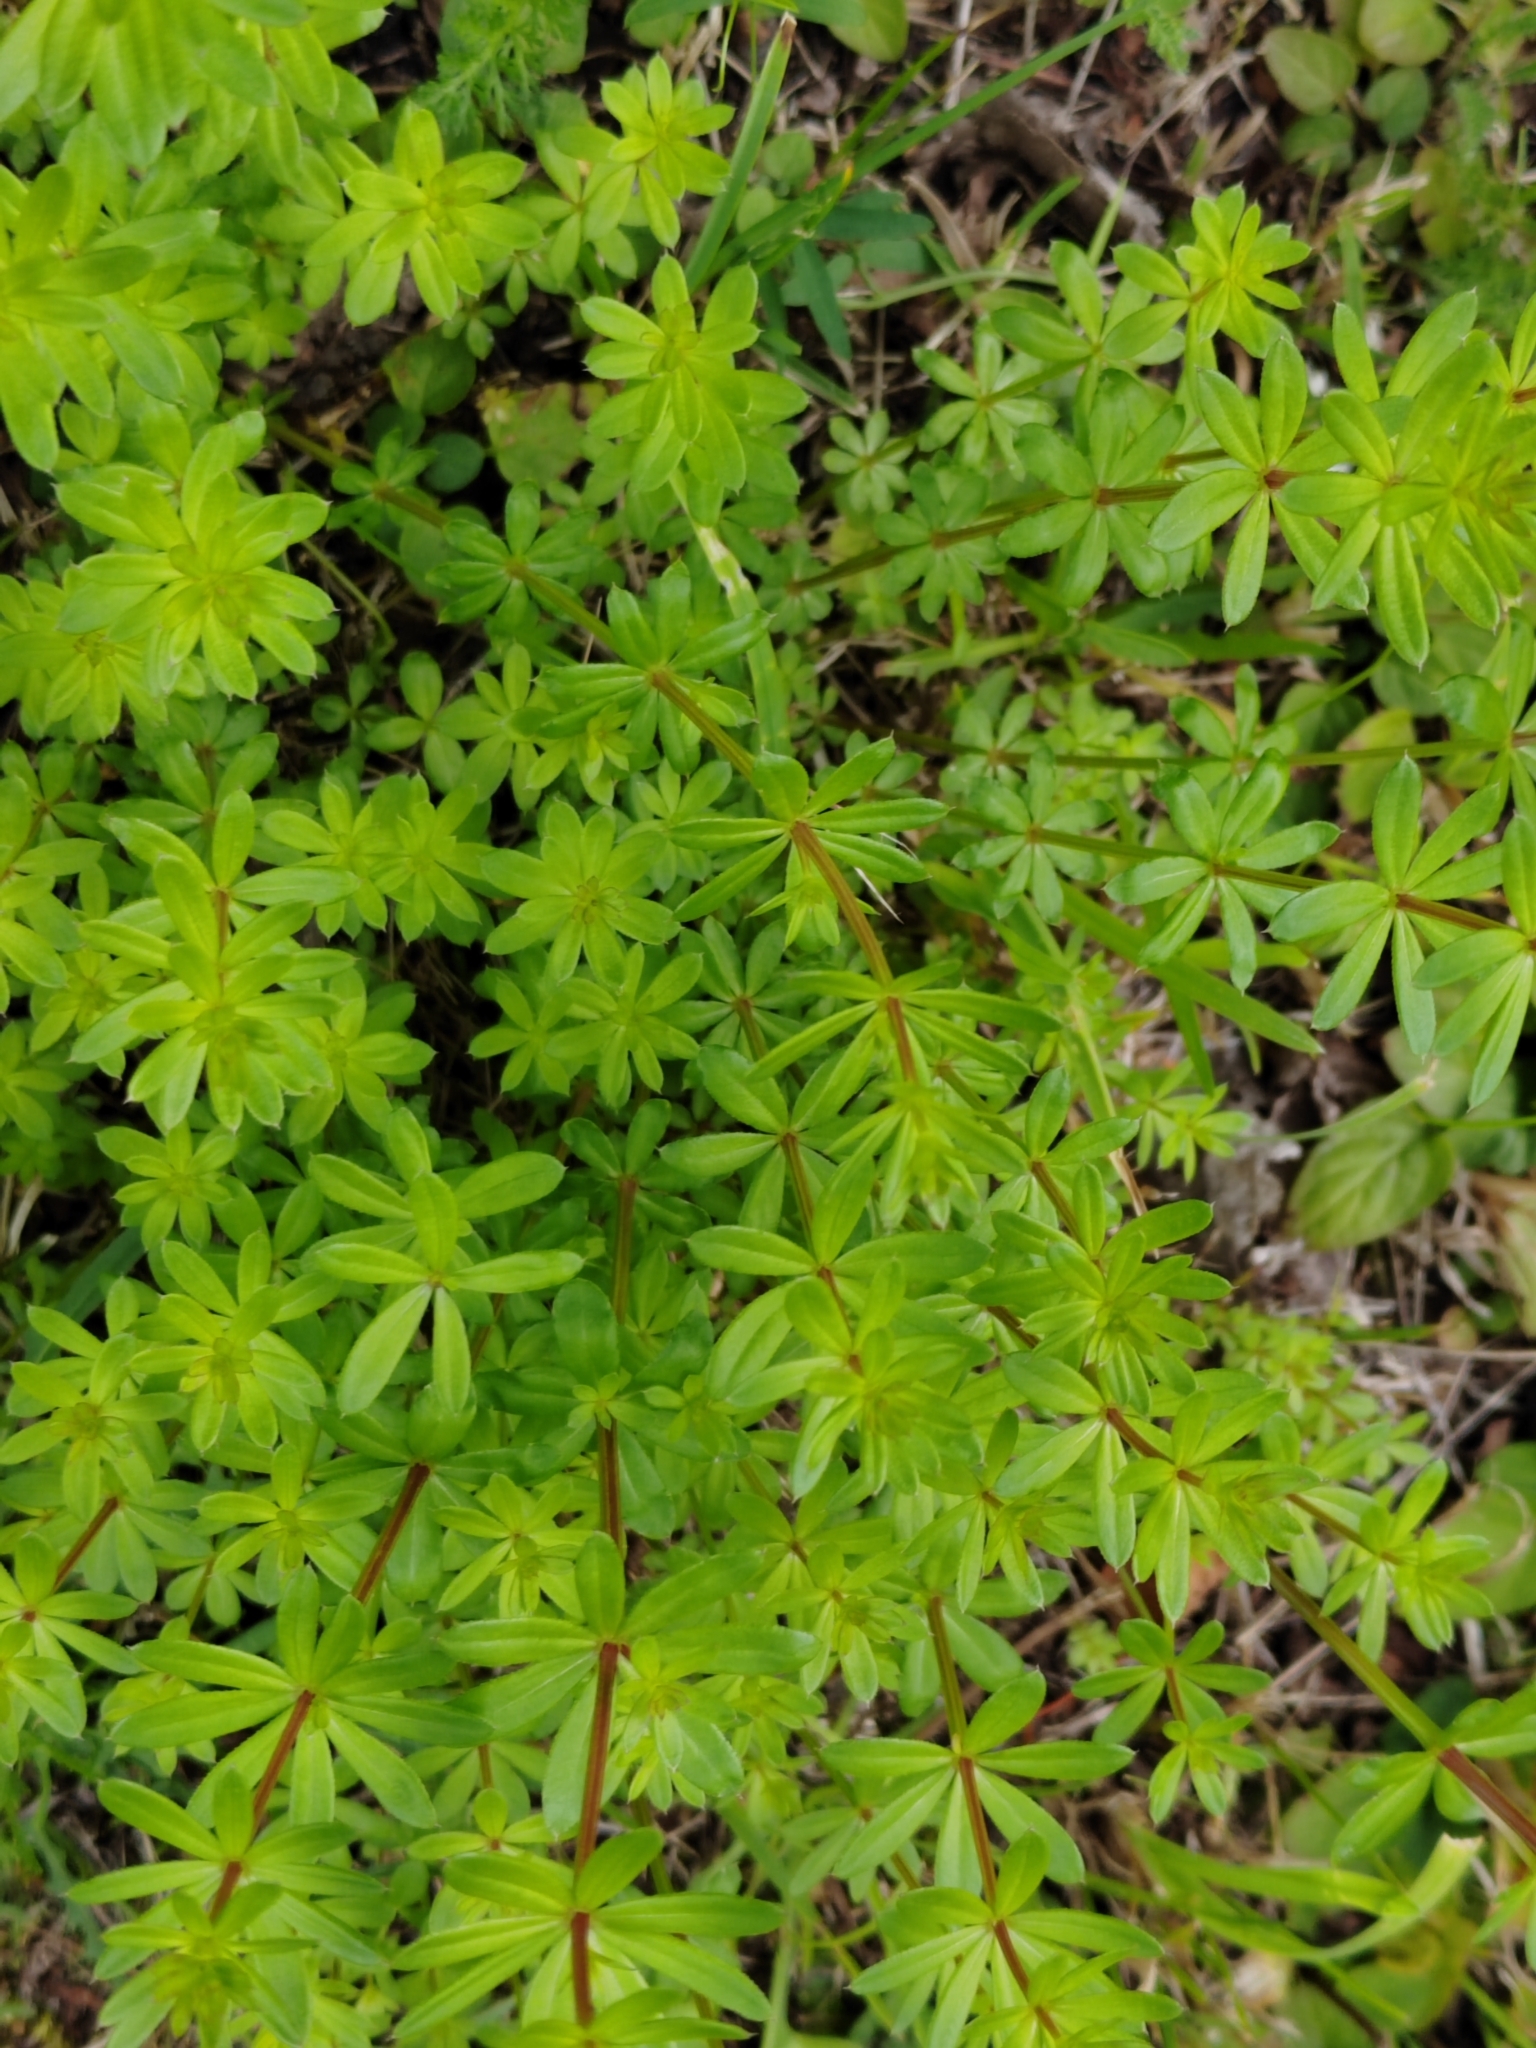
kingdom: Plantae
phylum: Tracheophyta
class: Magnoliopsida
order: Gentianales
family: Rubiaceae
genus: Galium
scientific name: Galium mollugo
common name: Hedge bedstraw
